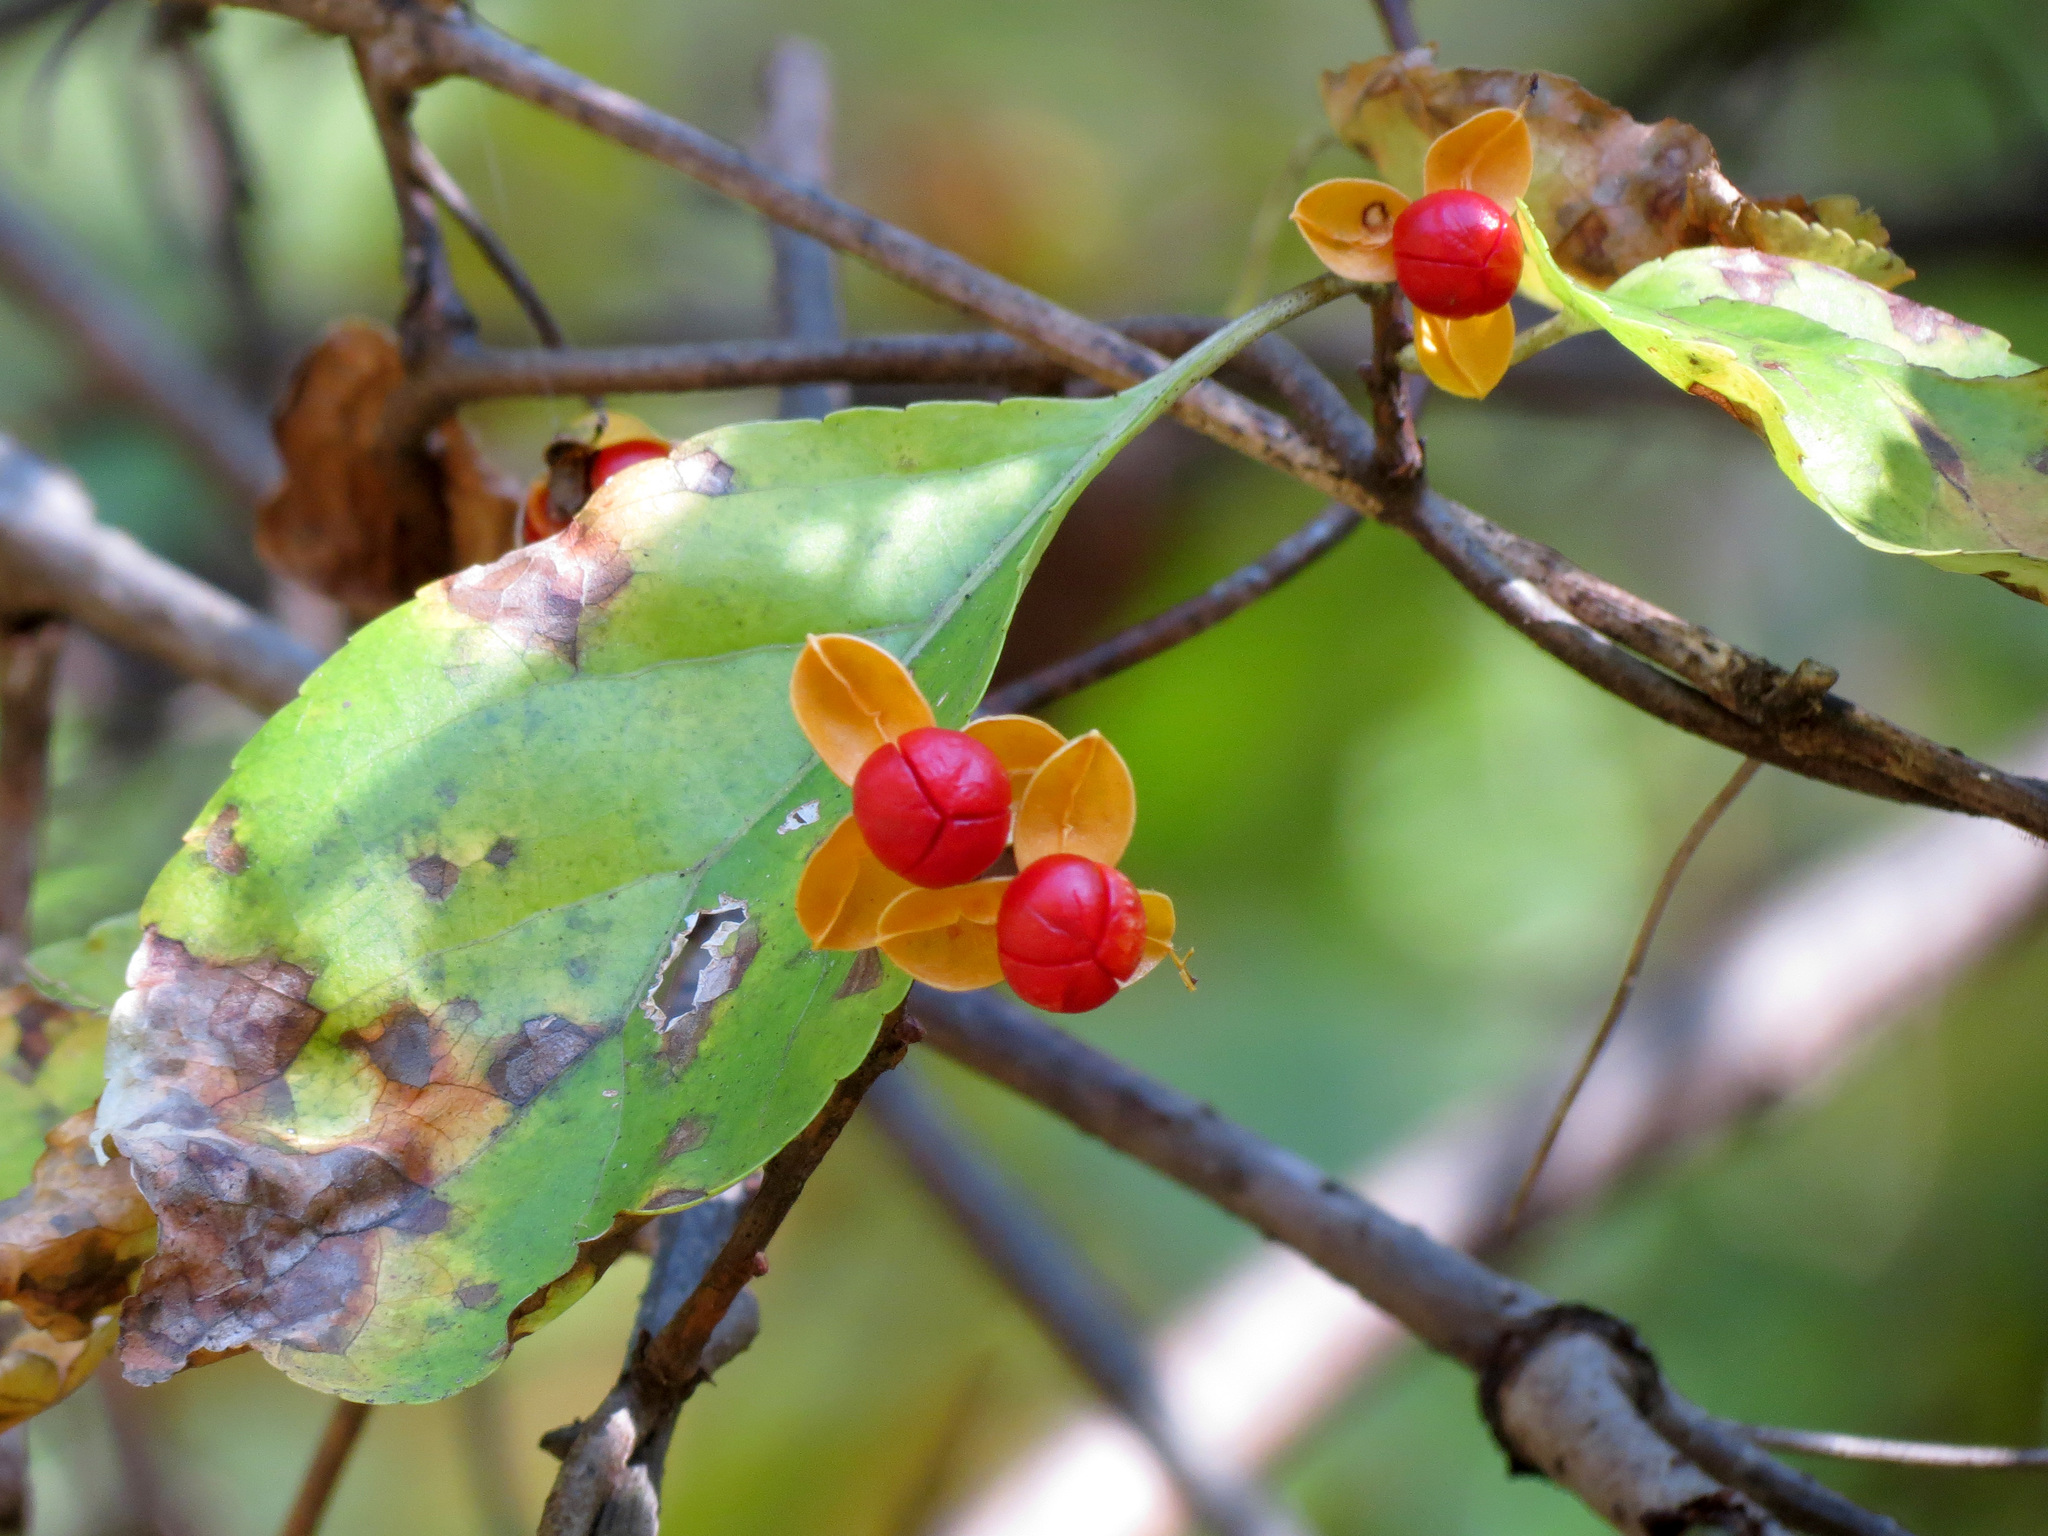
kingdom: Plantae
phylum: Tracheophyta
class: Magnoliopsida
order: Celastrales
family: Celastraceae
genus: Celastrus
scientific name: Celastrus orbiculatus
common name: Oriental bittersweet
